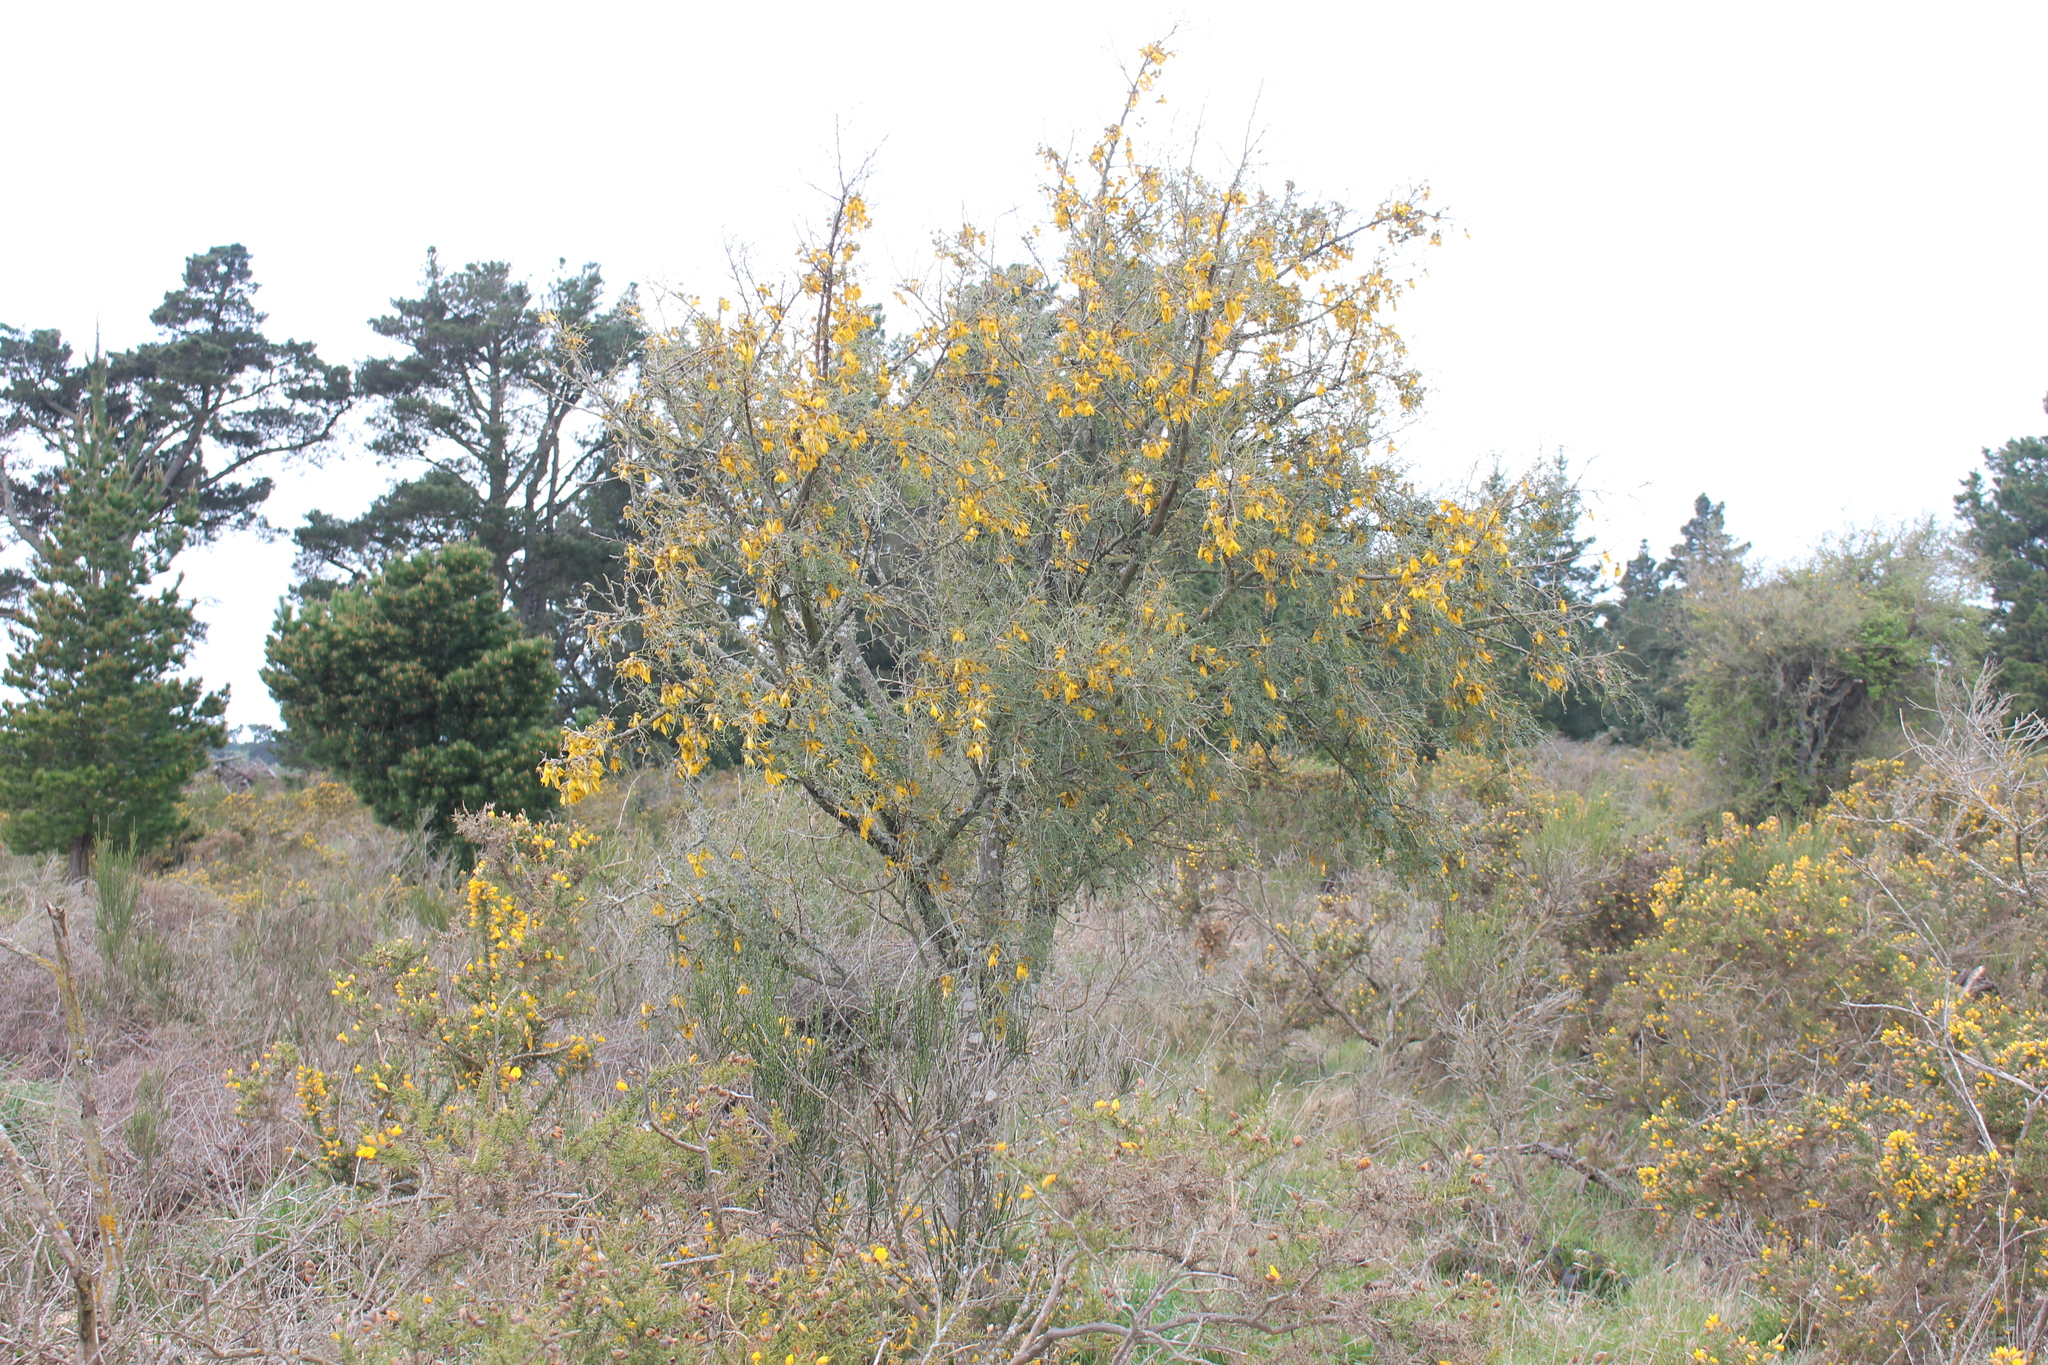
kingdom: Plantae
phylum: Tracheophyta
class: Magnoliopsida
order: Fabales
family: Fabaceae
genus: Sophora
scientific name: Sophora microphylla
